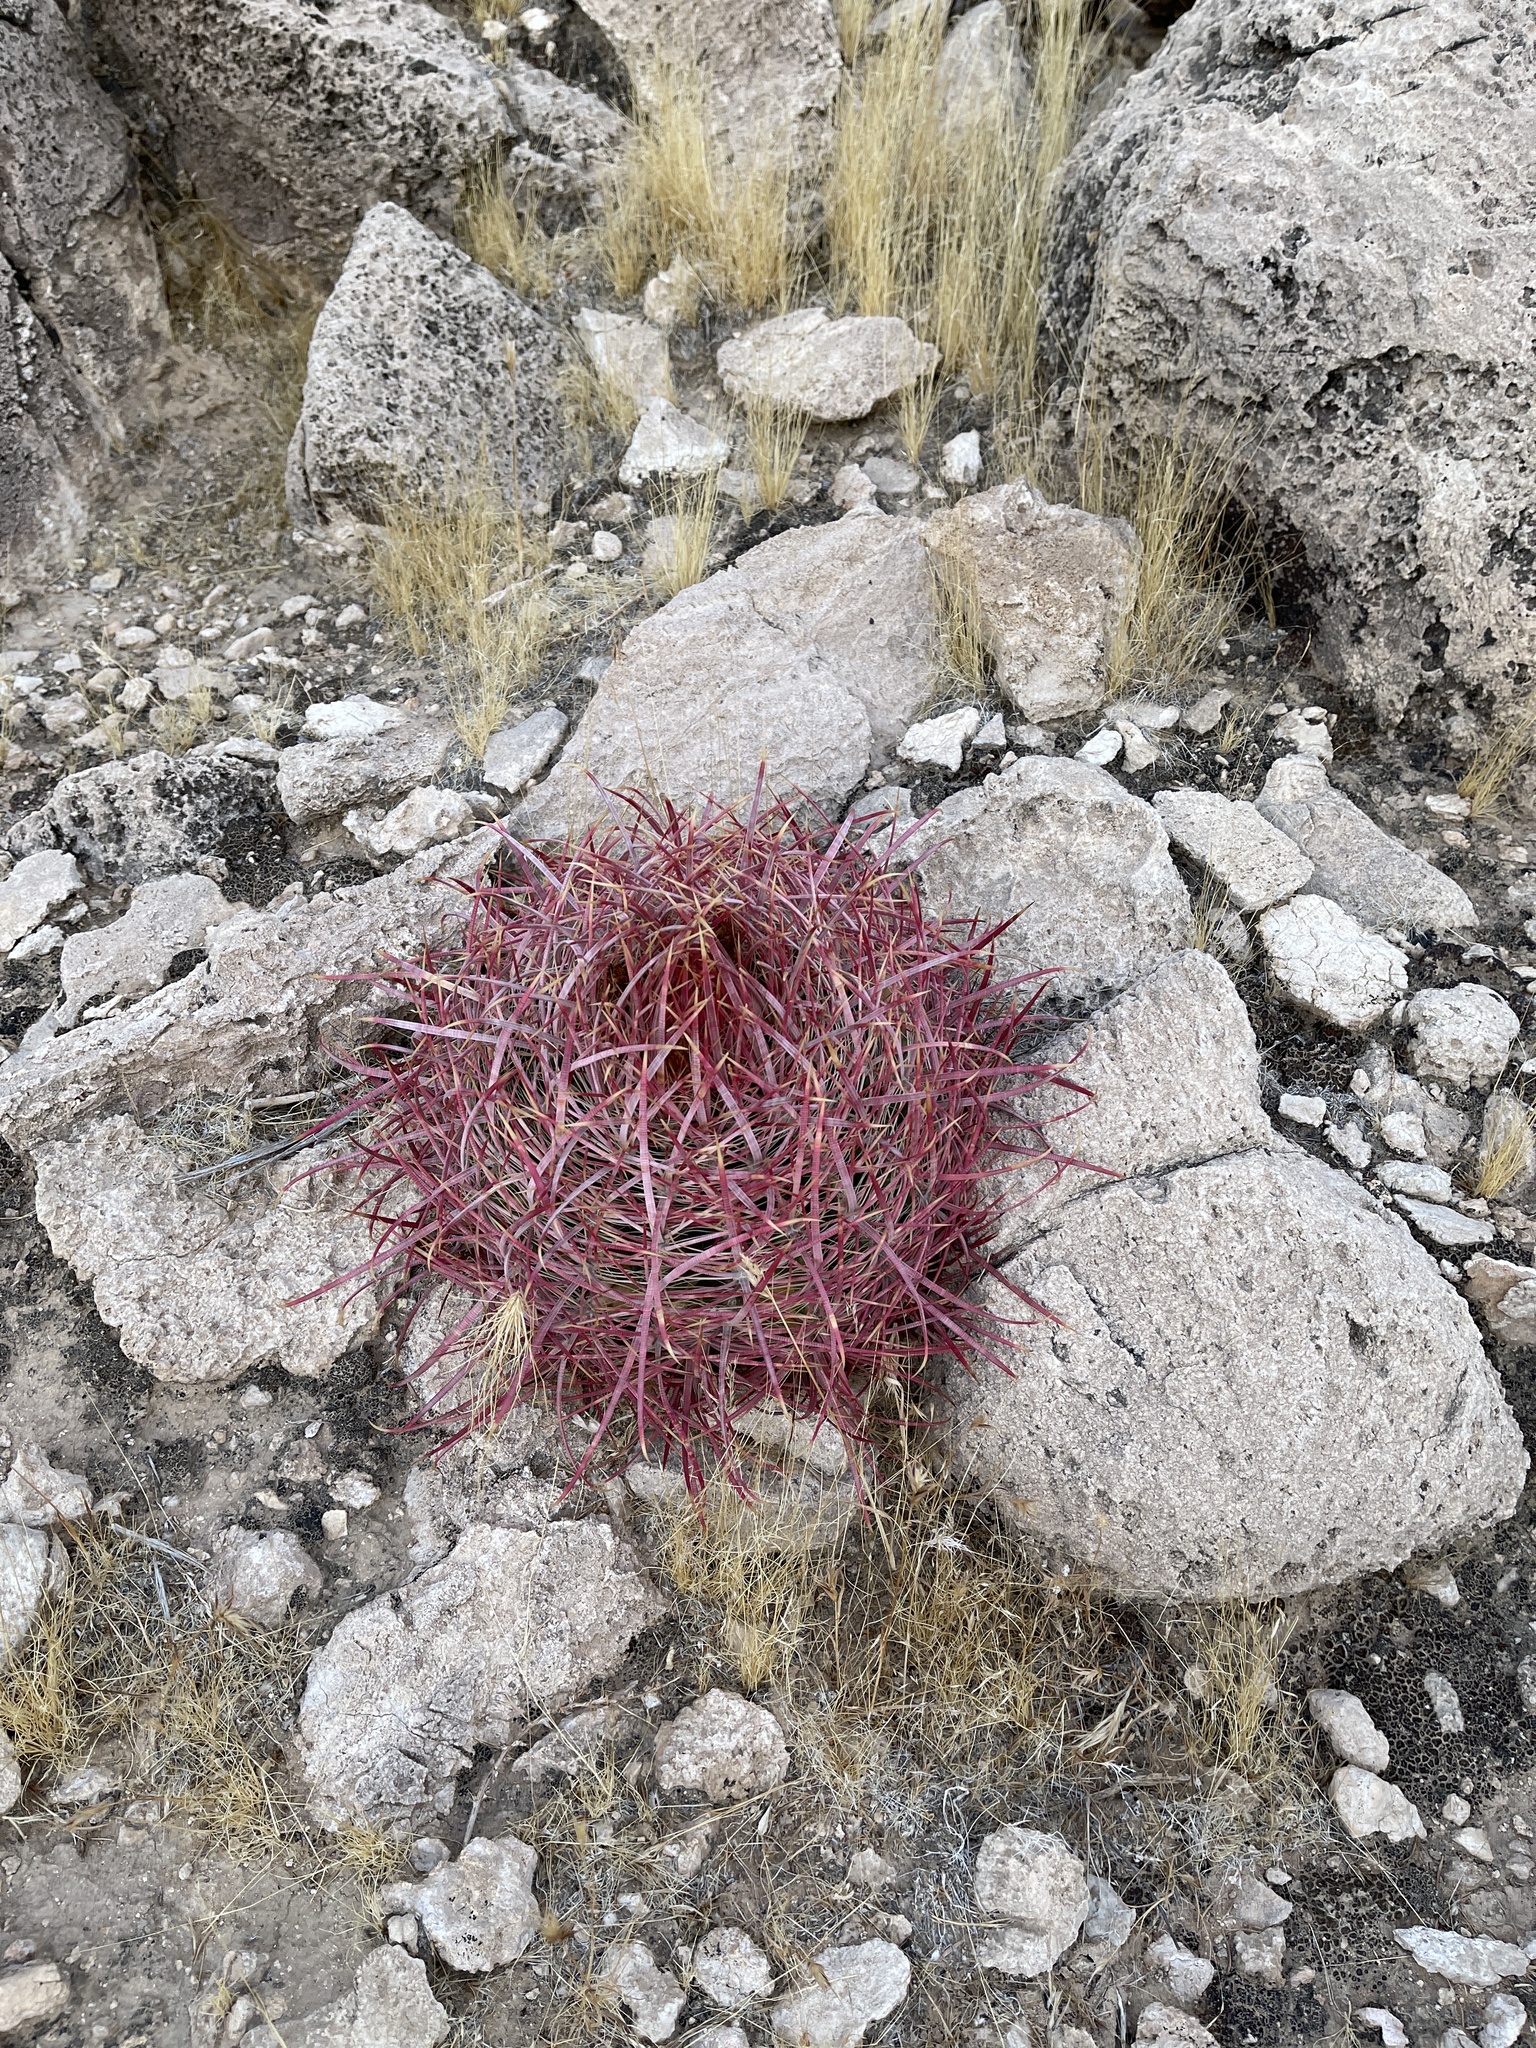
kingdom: Plantae
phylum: Tracheophyta
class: Magnoliopsida
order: Caryophyllales
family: Cactaceae
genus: Ferocactus
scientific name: Ferocactus cylindraceus
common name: California barrel cactus
